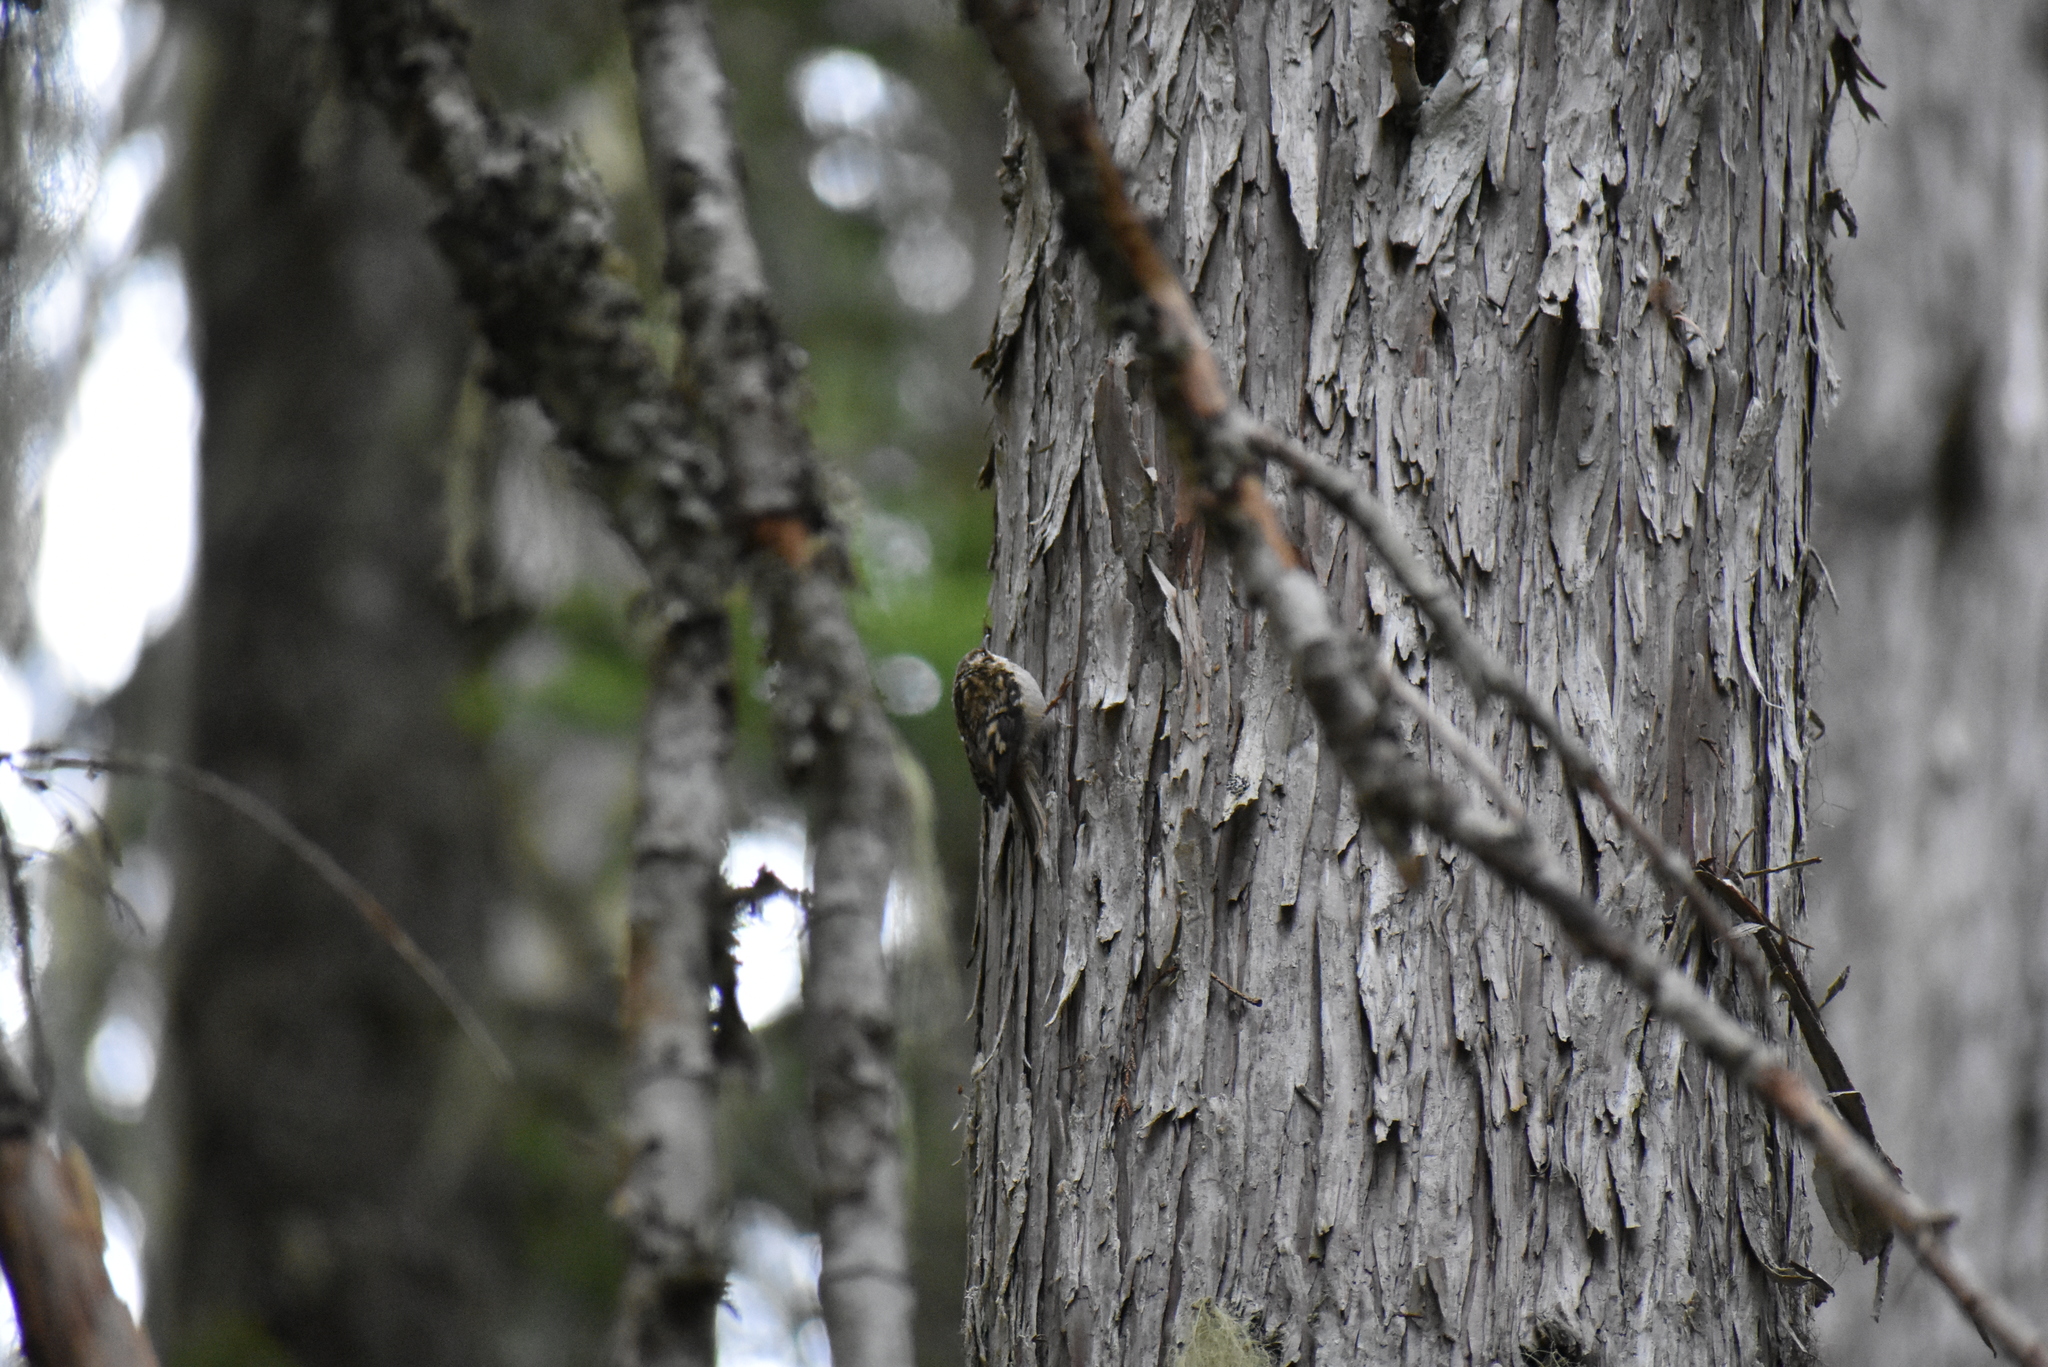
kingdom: Animalia
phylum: Chordata
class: Aves
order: Passeriformes
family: Certhiidae
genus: Certhia
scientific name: Certhia americana
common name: Brown creeper
